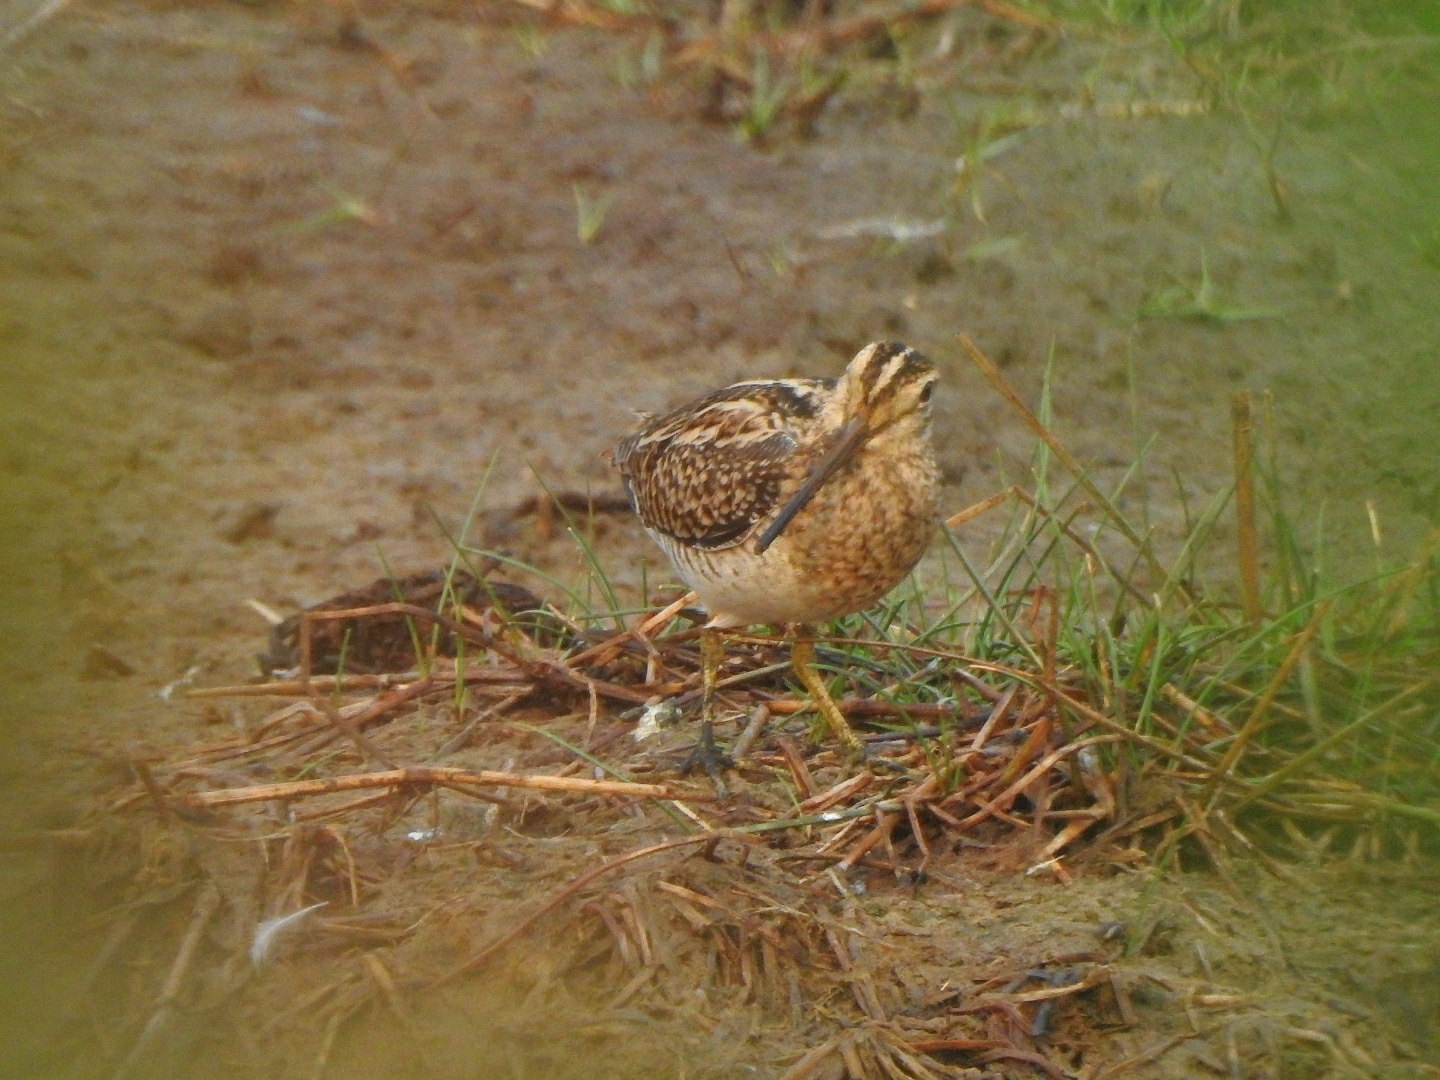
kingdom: Animalia
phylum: Chordata
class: Aves
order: Charadriiformes
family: Scolopacidae
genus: Gallinago
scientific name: Gallinago gallinago
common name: Common snipe
